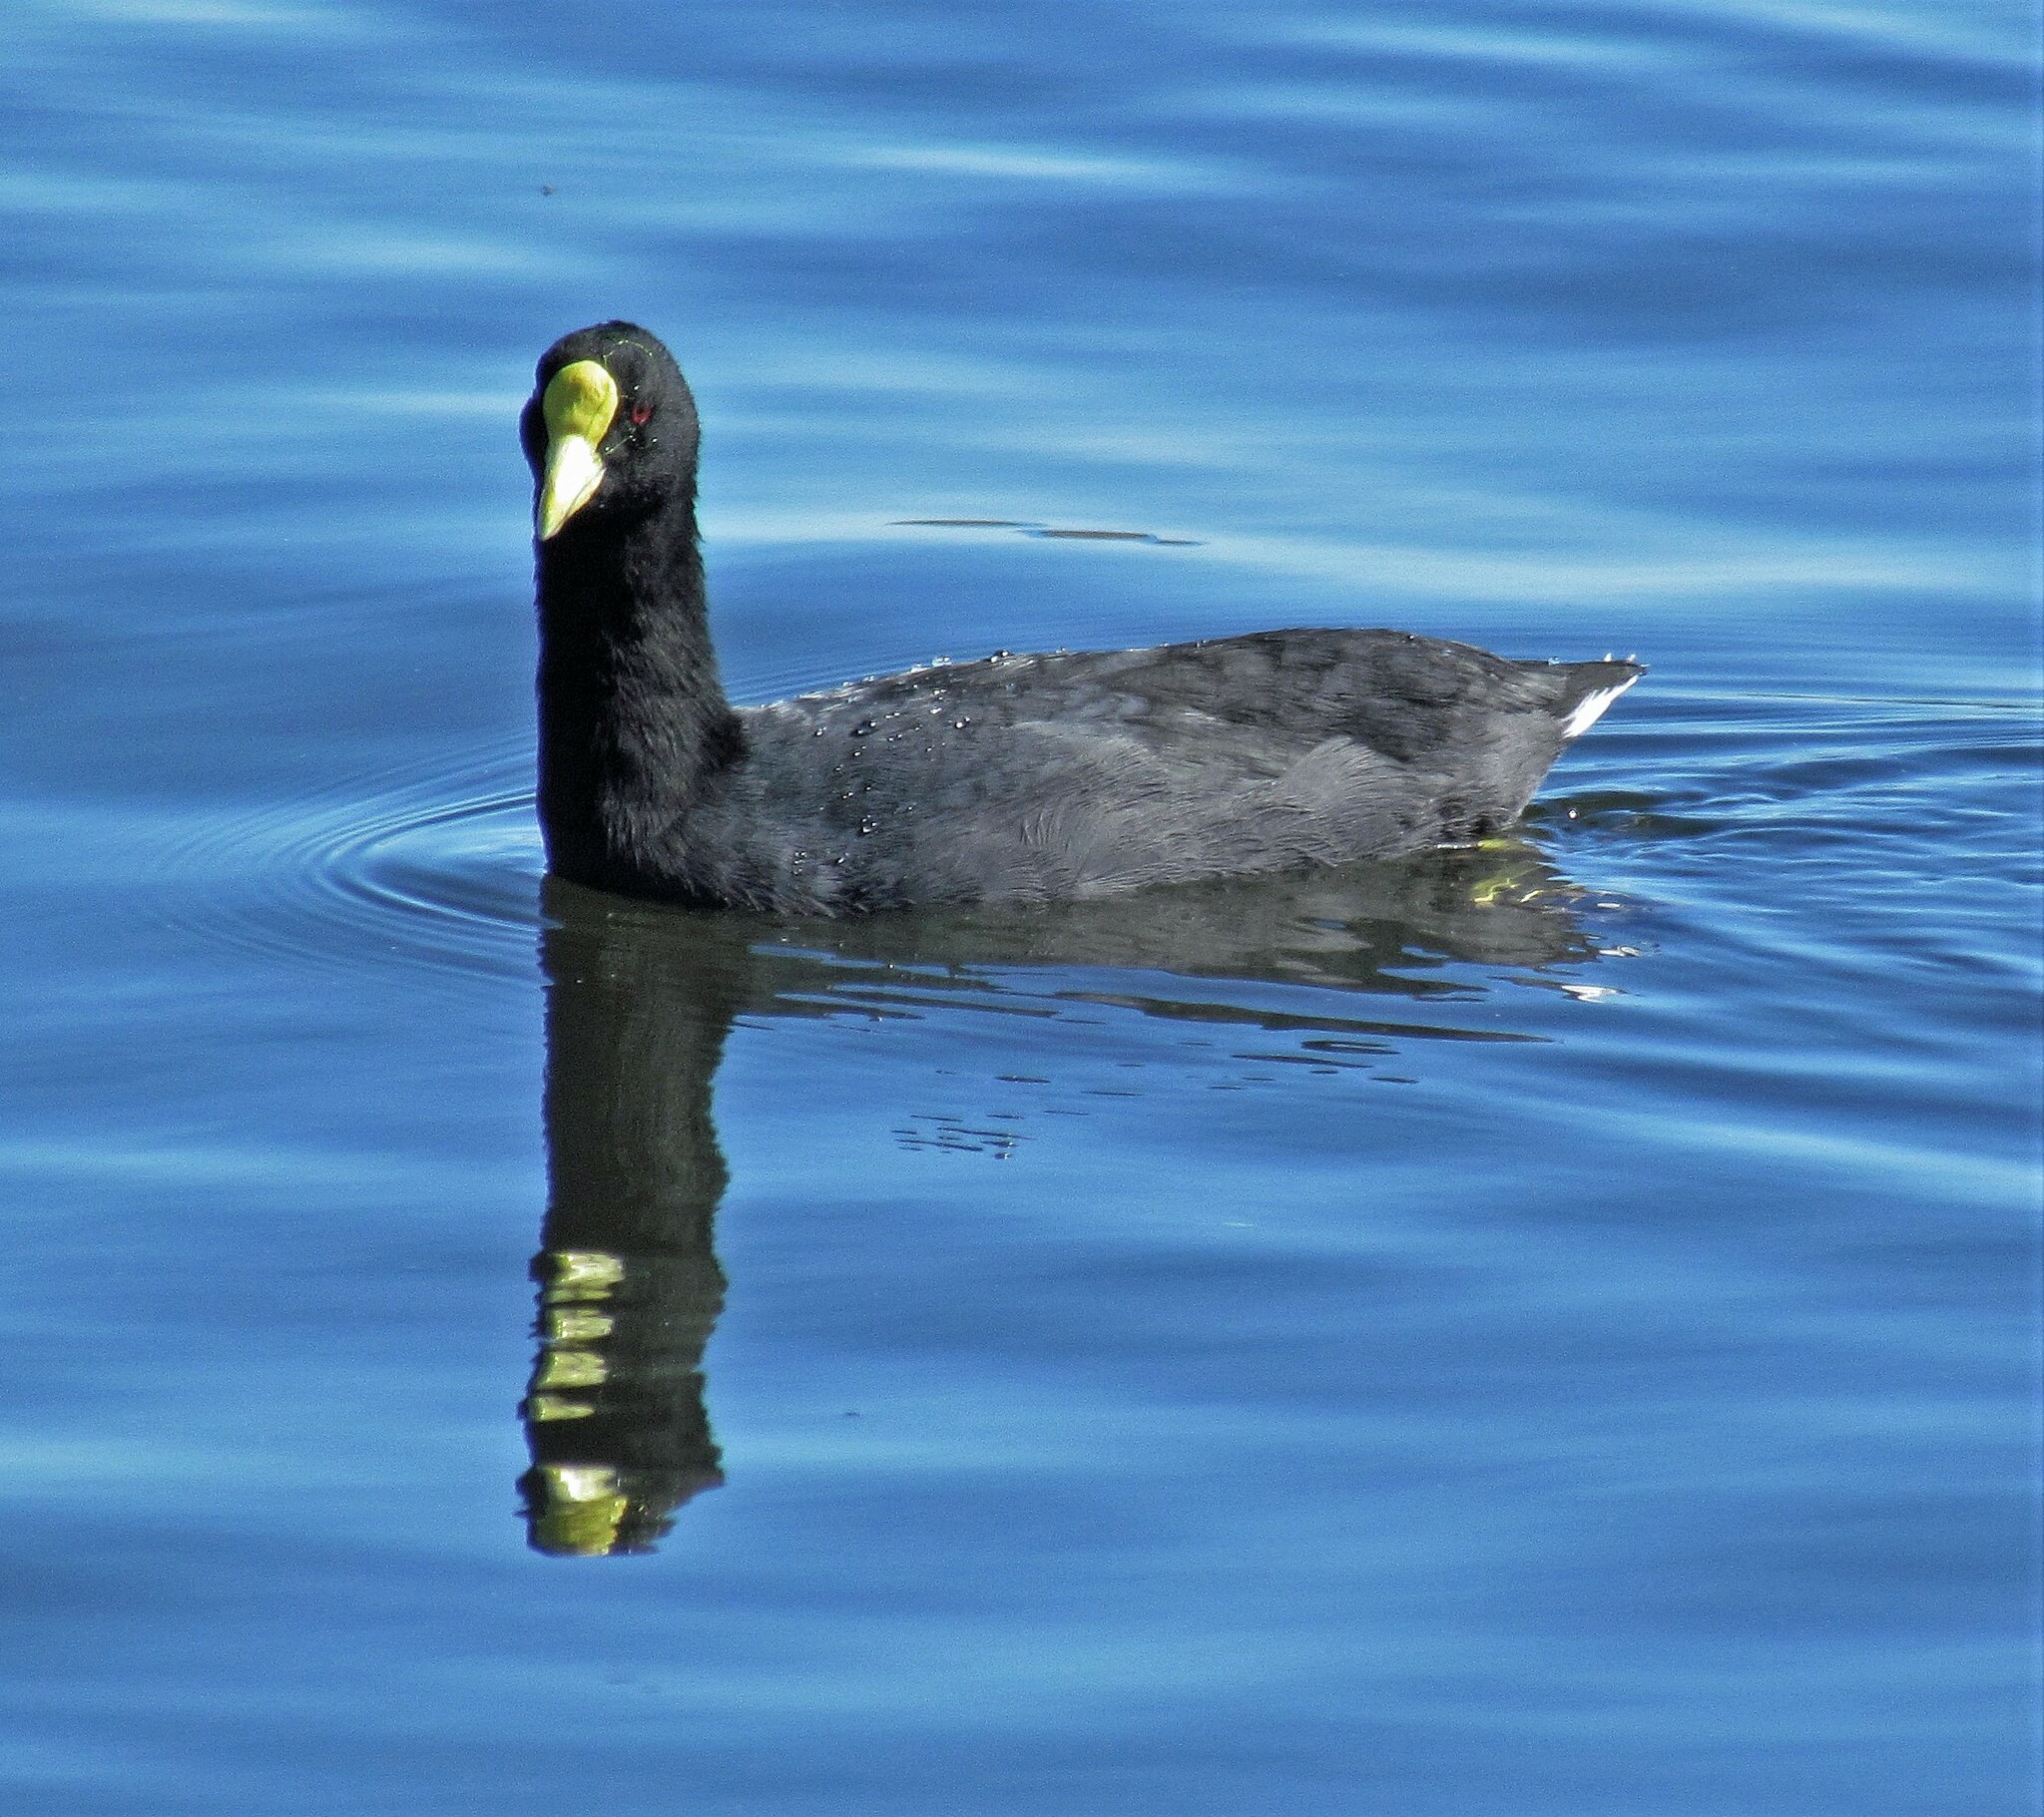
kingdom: Animalia
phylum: Chordata
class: Aves
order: Gruiformes
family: Rallidae
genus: Fulica
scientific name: Fulica leucoptera
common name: White-winged coot
